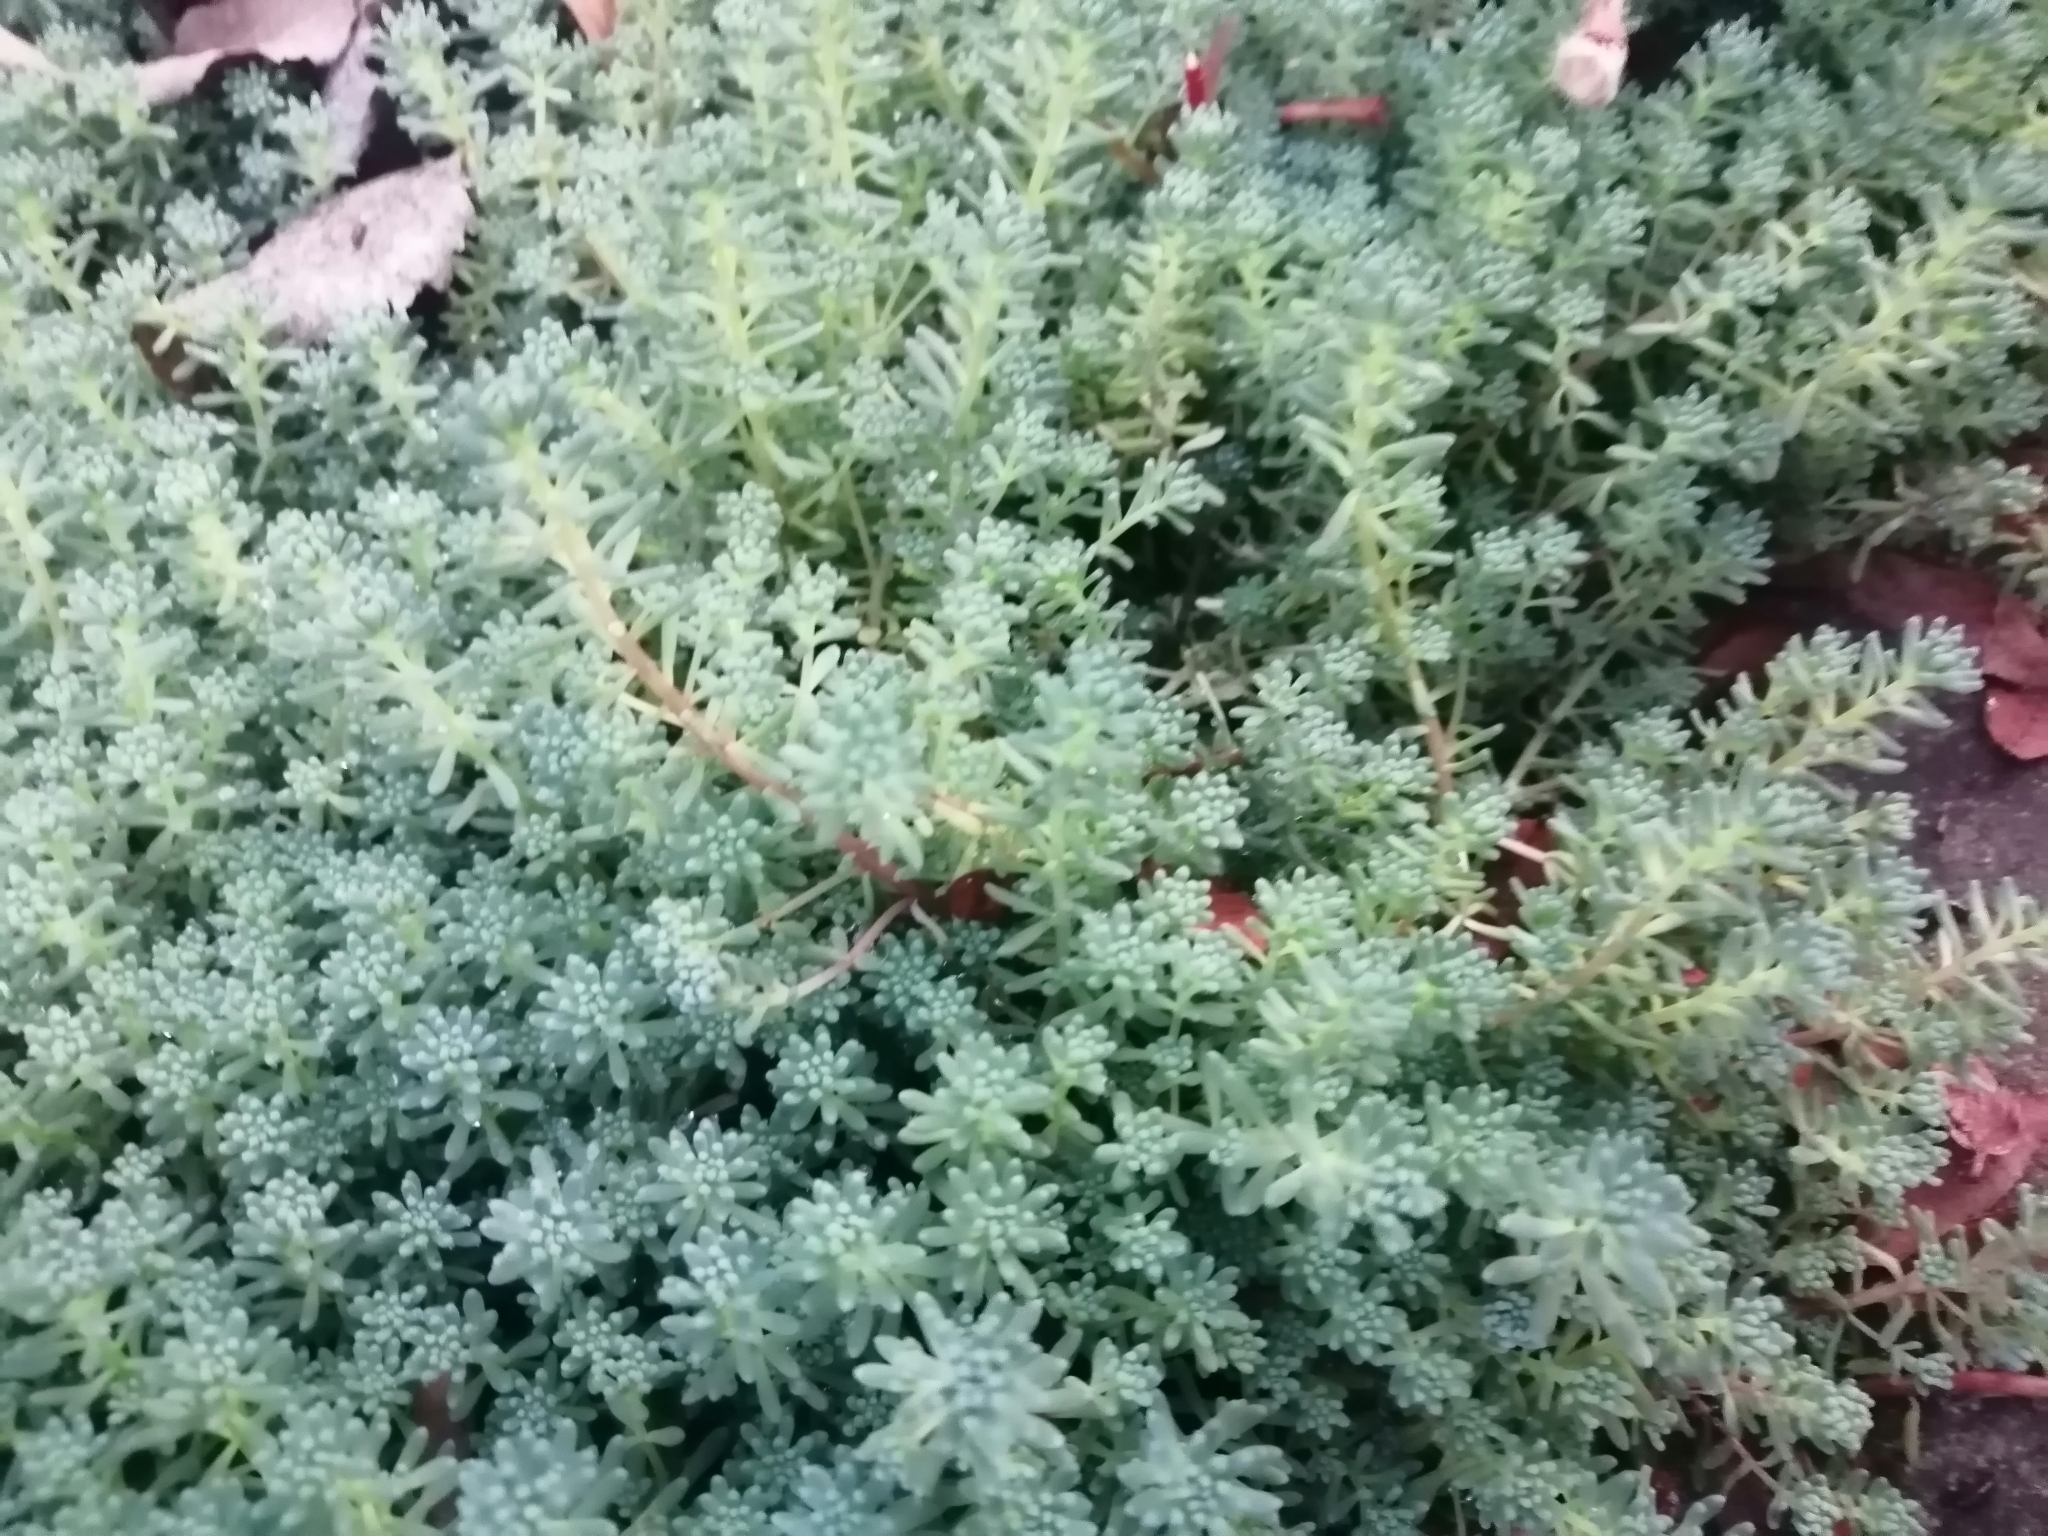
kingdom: Plantae
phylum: Tracheophyta
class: Magnoliopsida
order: Saxifragales
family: Crassulaceae
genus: Sedum
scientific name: Sedum pallidum
